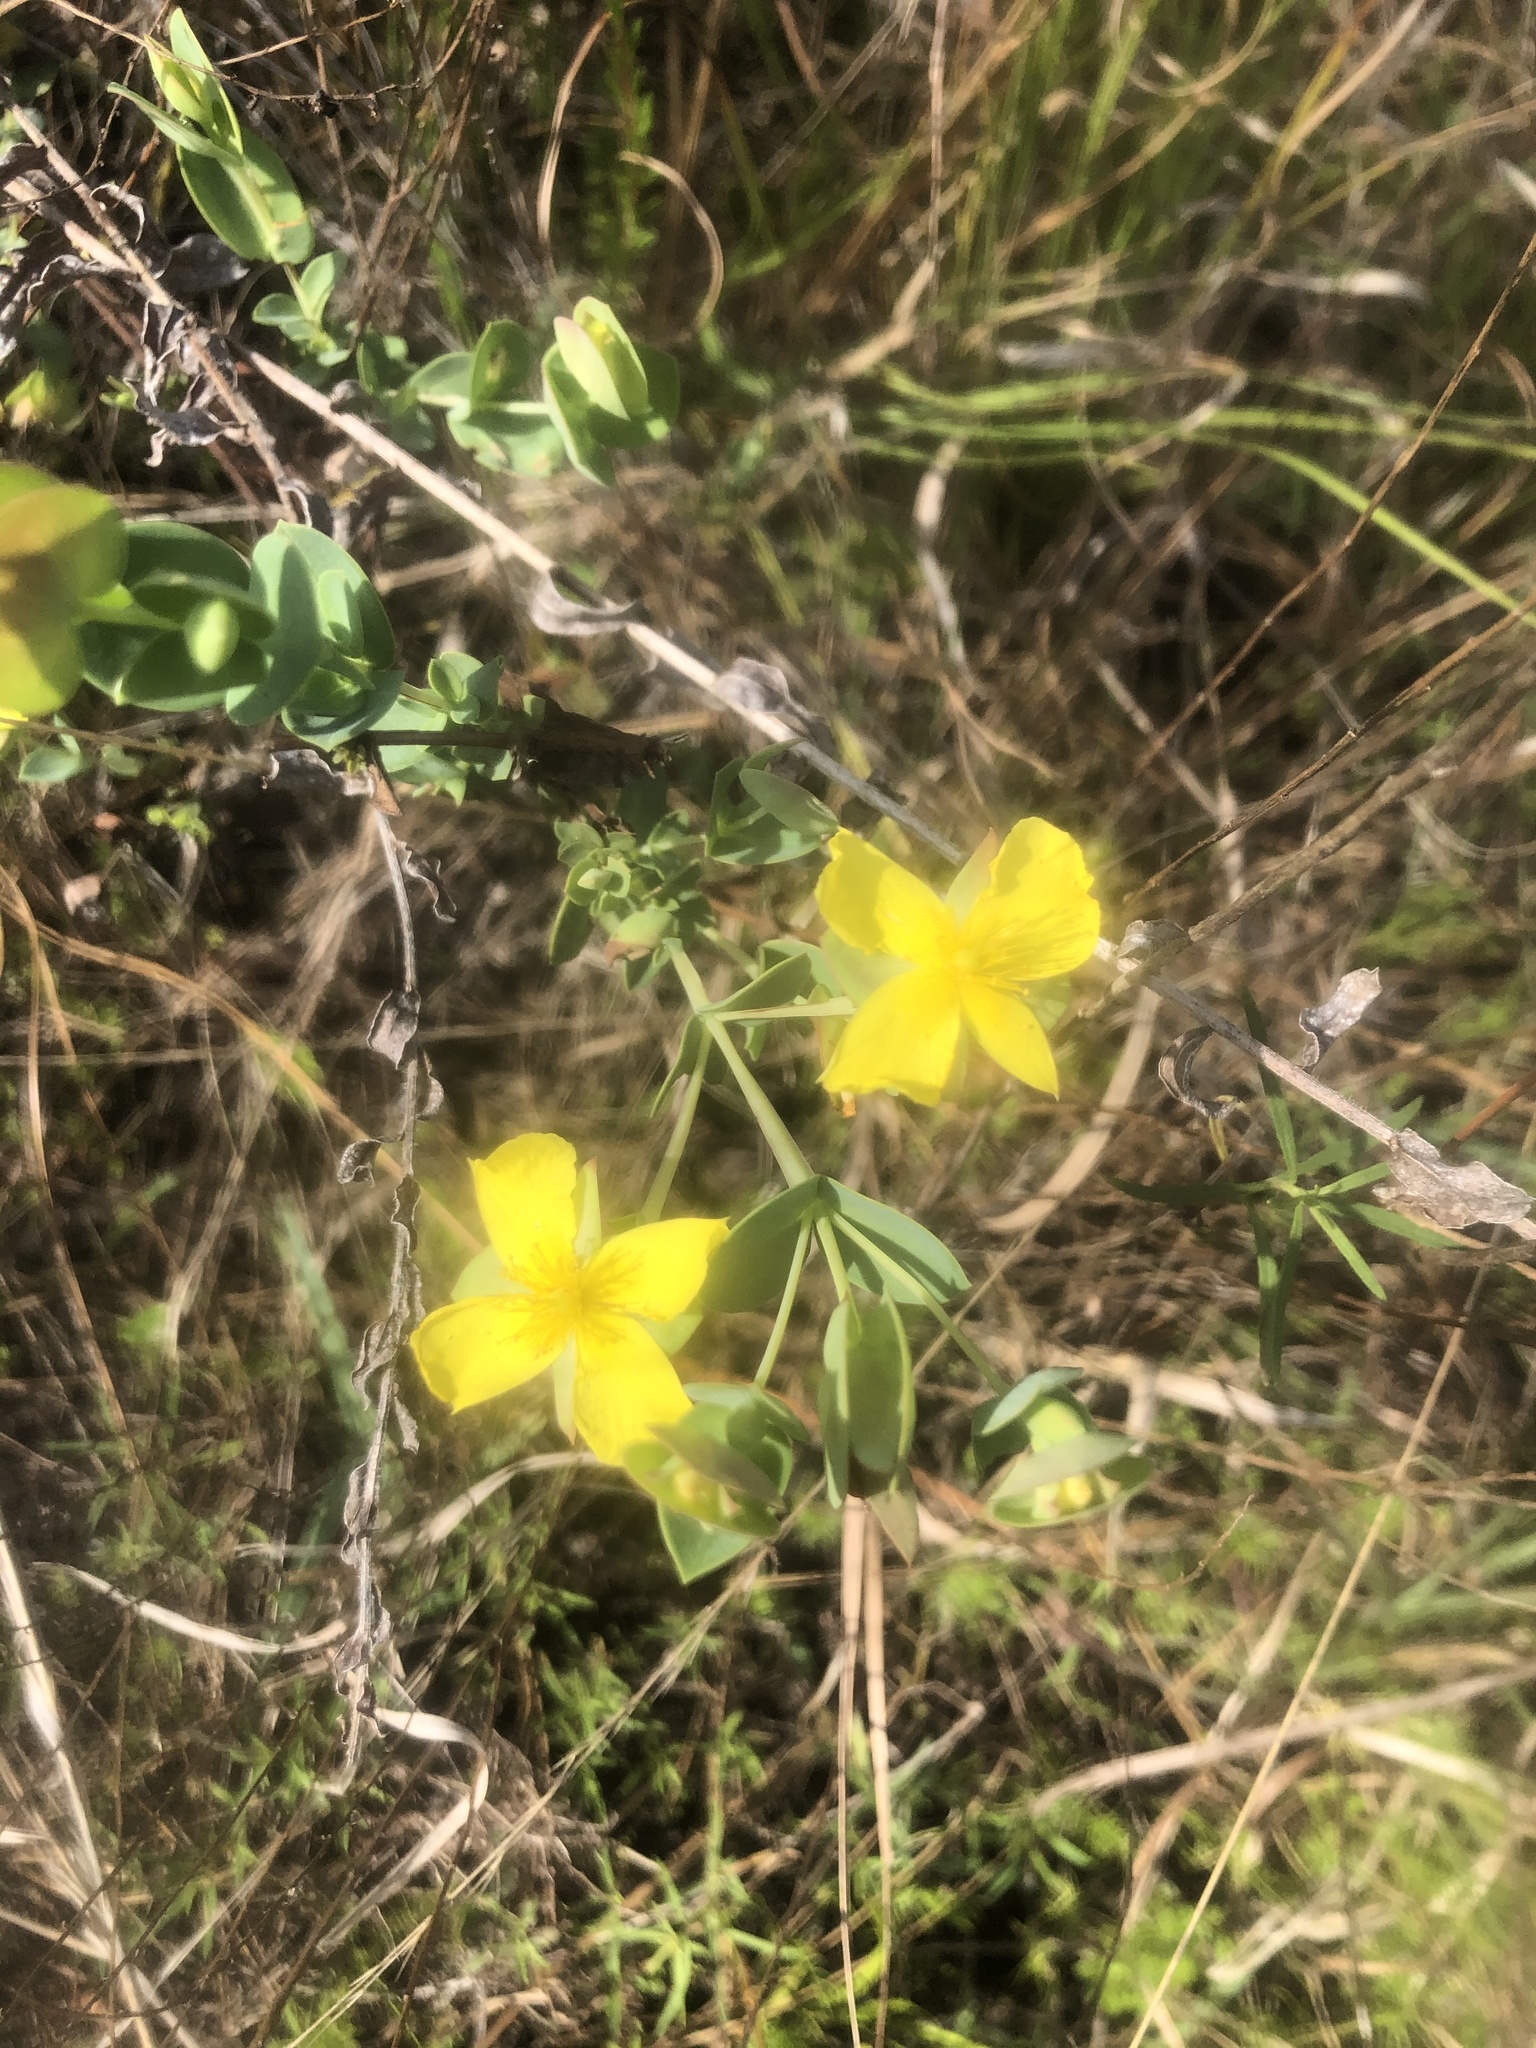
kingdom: Plantae
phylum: Tracheophyta
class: Magnoliopsida
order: Malpighiales
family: Hypericaceae
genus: Hypericum
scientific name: Hypericum tetrapetalum
